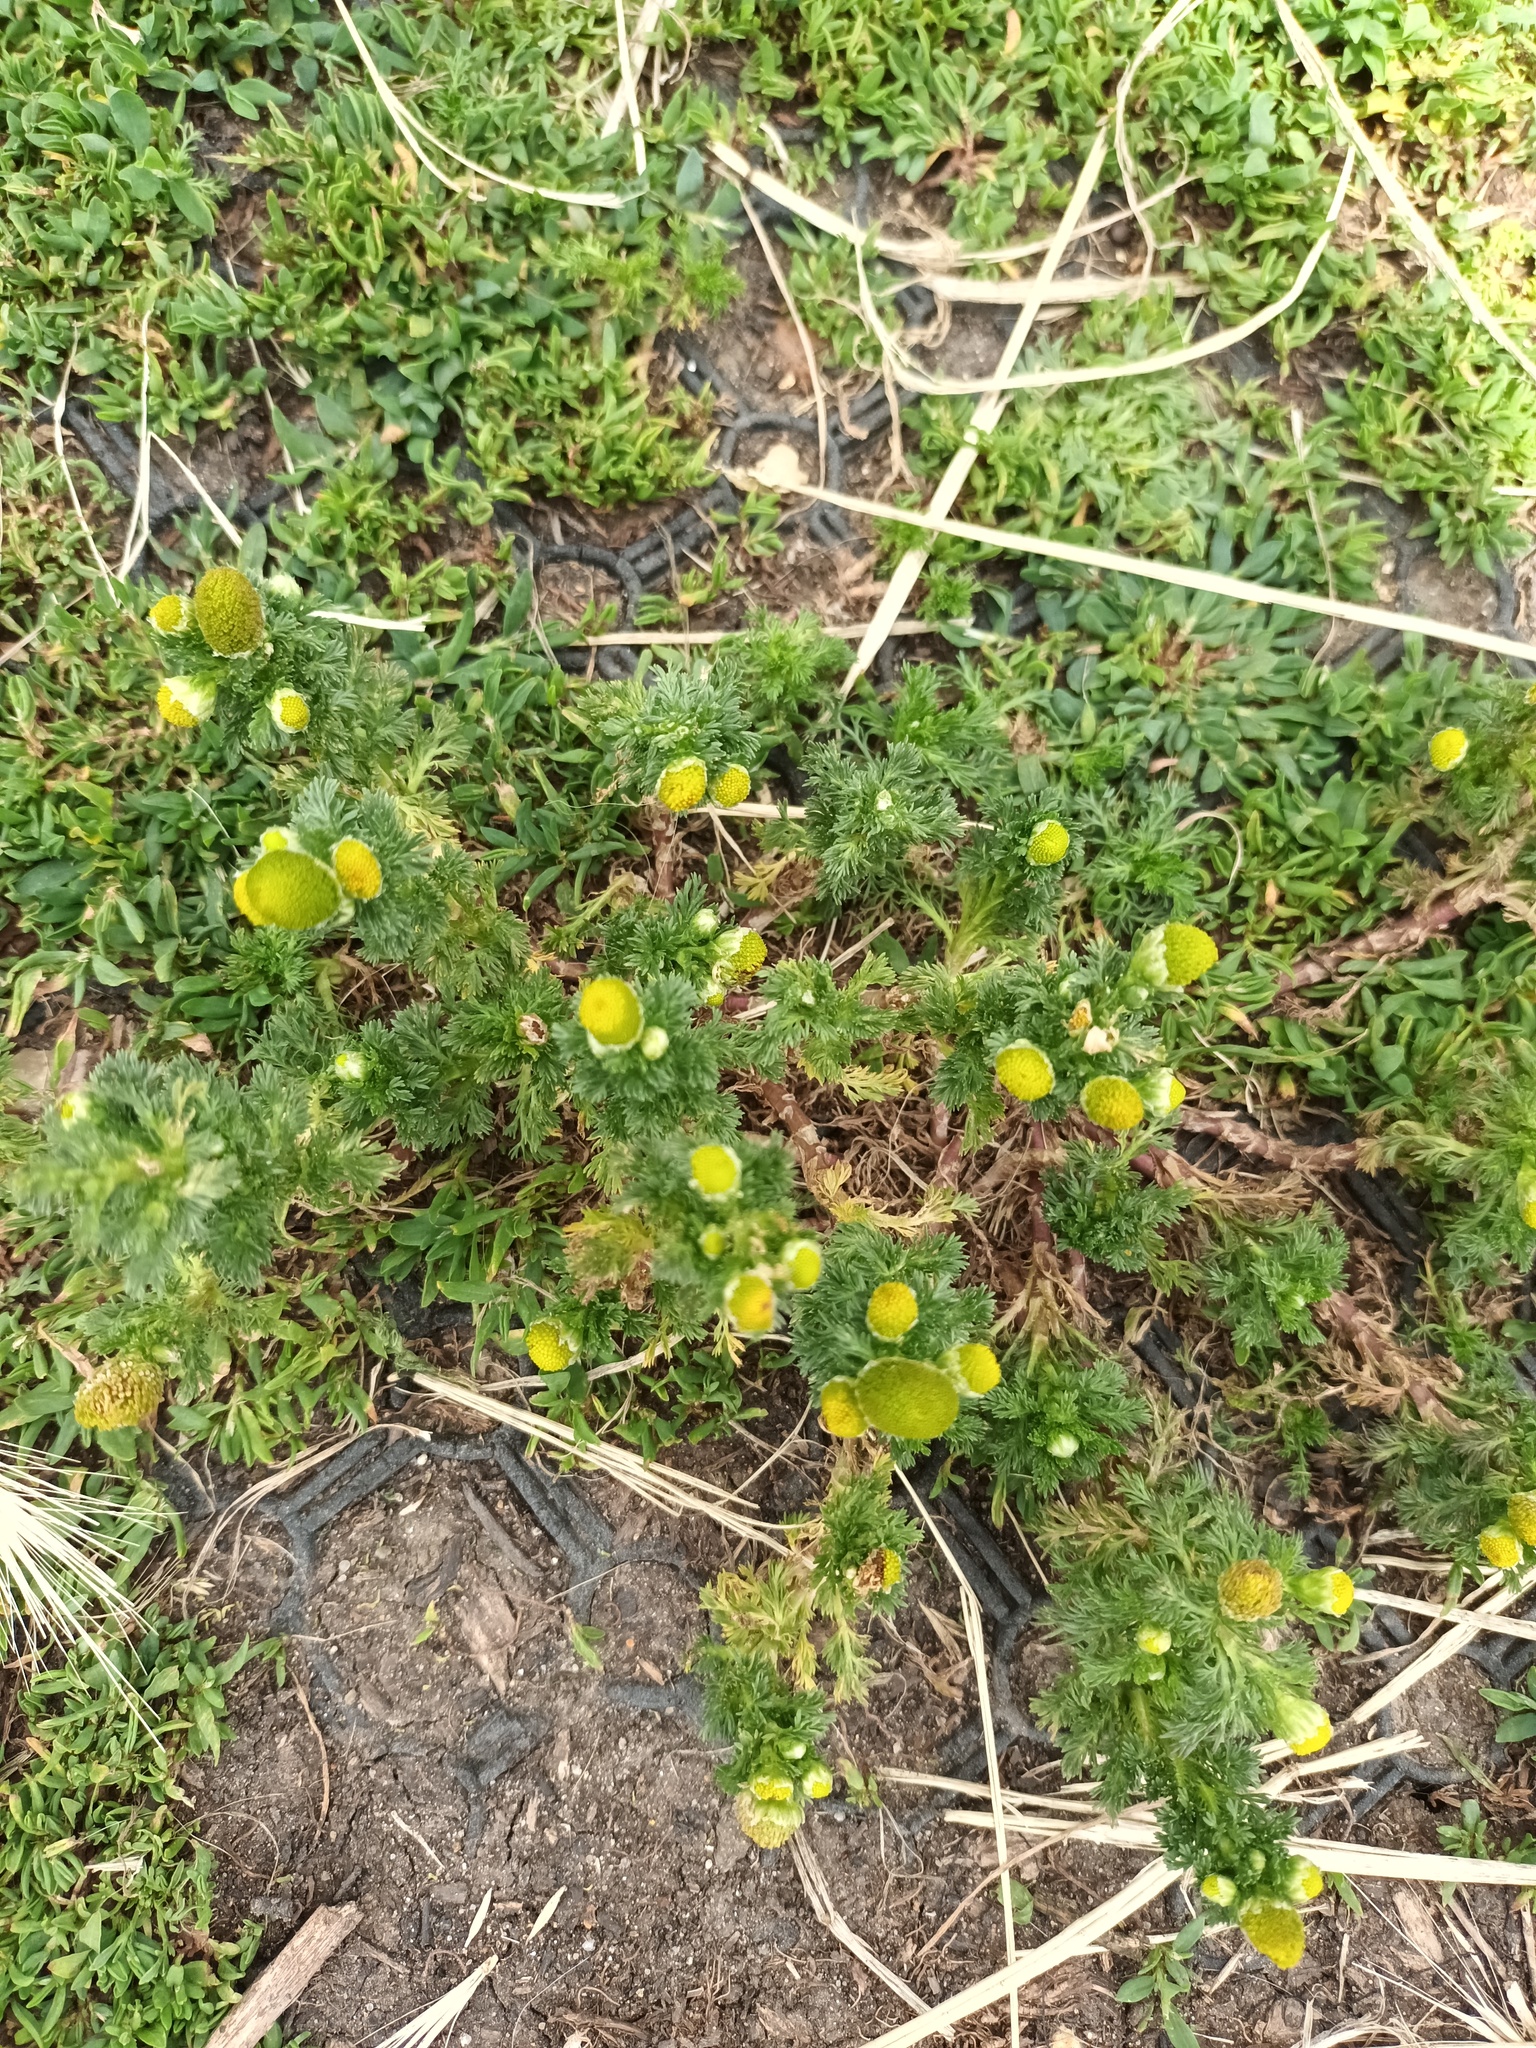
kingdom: Plantae
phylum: Tracheophyta
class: Magnoliopsida
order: Asterales
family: Asteraceae
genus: Matricaria
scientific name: Matricaria discoidea
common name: Disc mayweed
